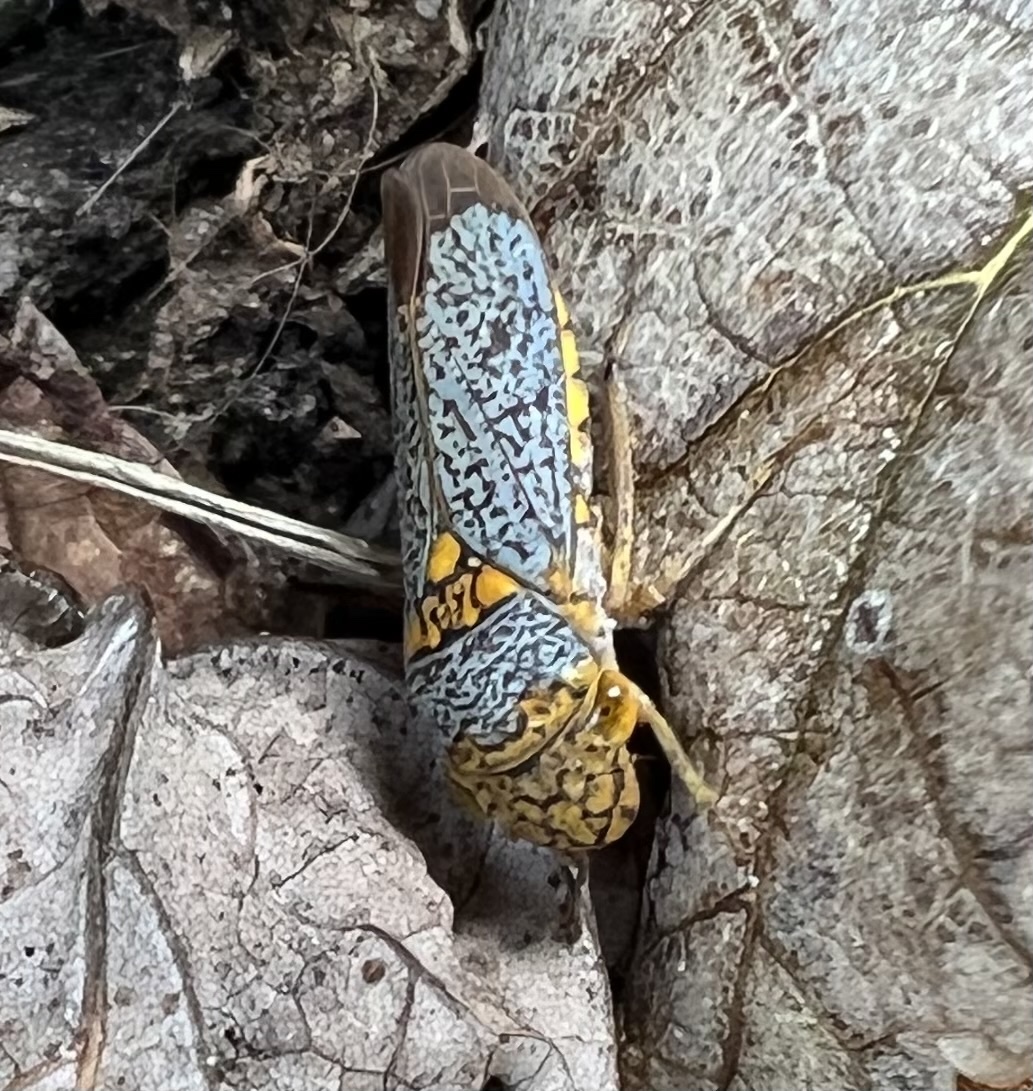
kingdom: Animalia
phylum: Arthropoda
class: Insecta
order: Hemiptera
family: Cicadellidae
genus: Oncometopia
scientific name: Oncometopia orbona
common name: Broad-headed sharpshooter
